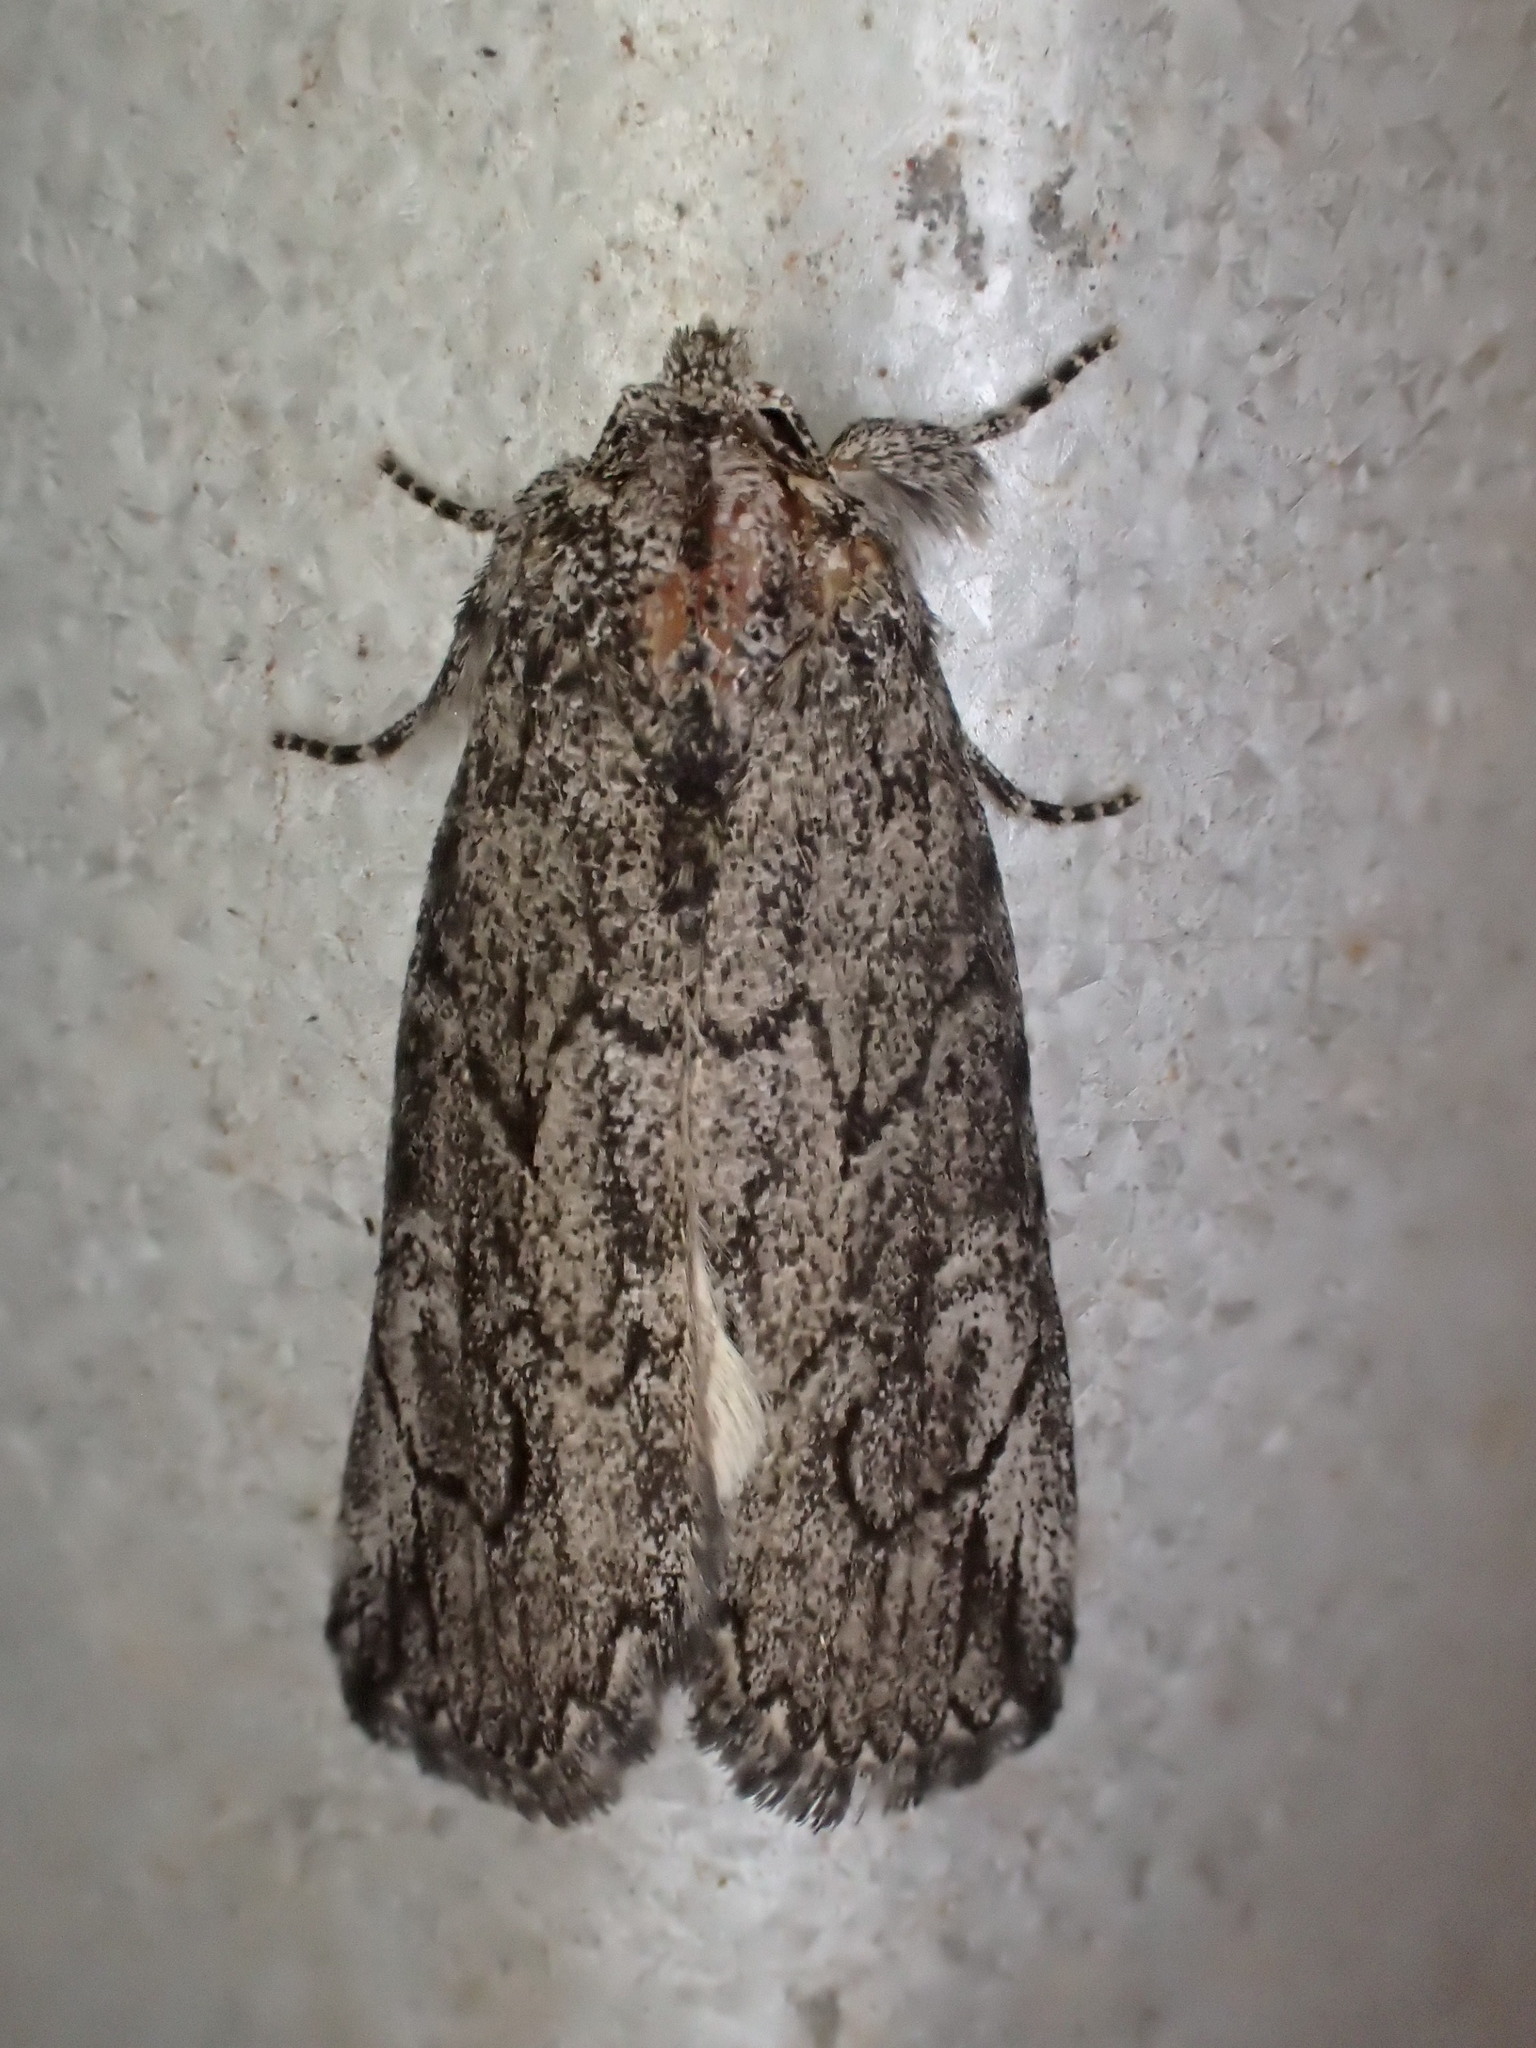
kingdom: Animalia
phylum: Arthropoda
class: Insecta
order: Lepidoptera
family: Erebidae
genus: Stenoprora
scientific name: Stenoprora eurycycla
